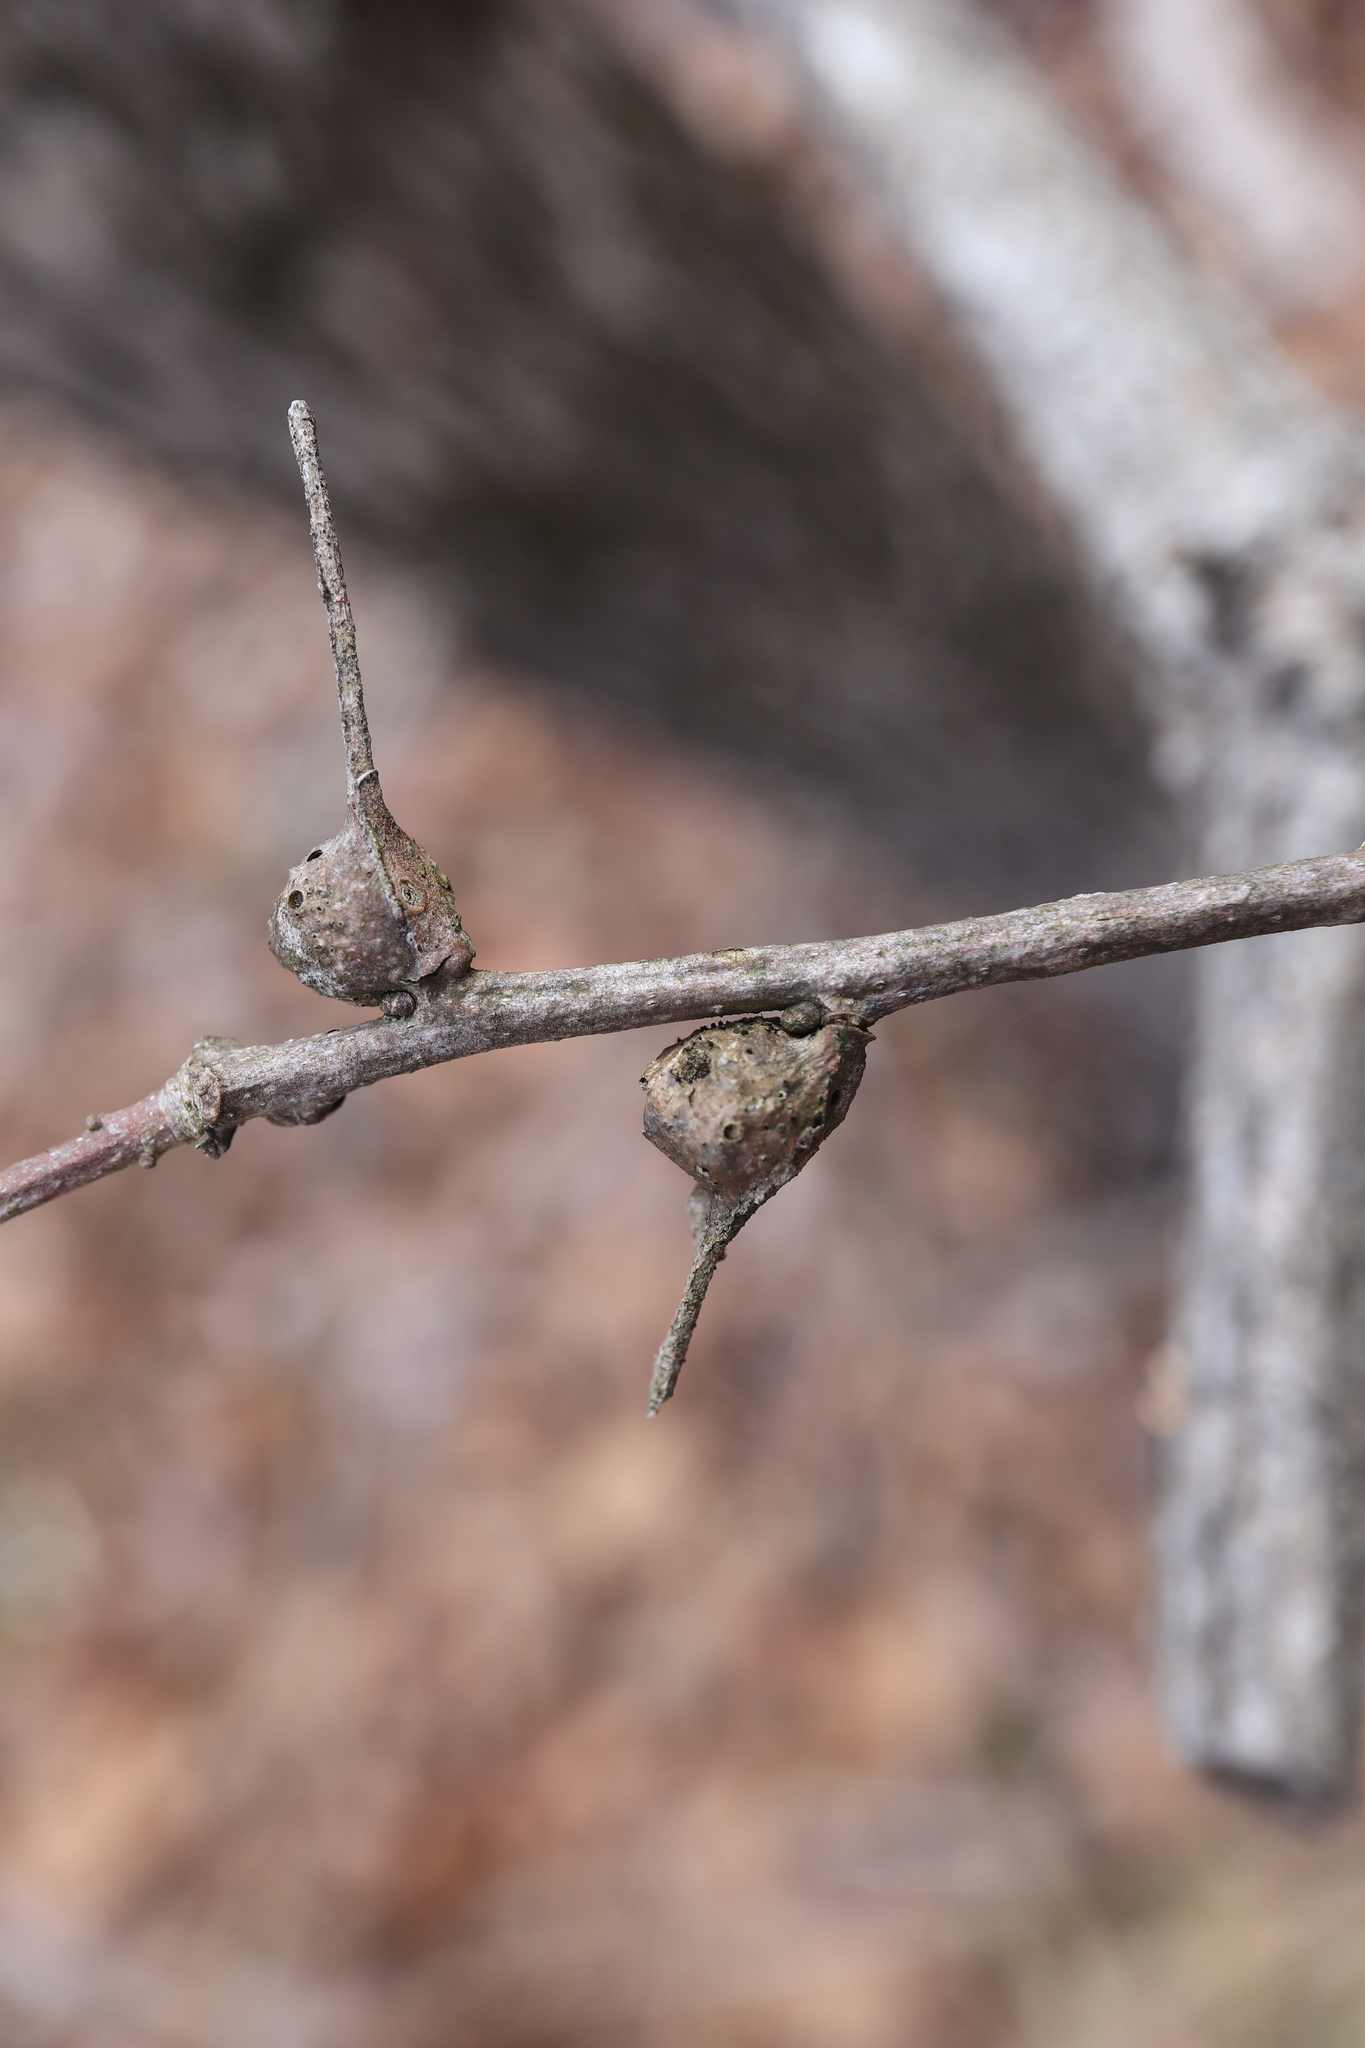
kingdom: Animalia
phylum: Arthropoda
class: Insecta
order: Hymenoptera
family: Cynipidae
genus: Andricus
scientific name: Andricus
